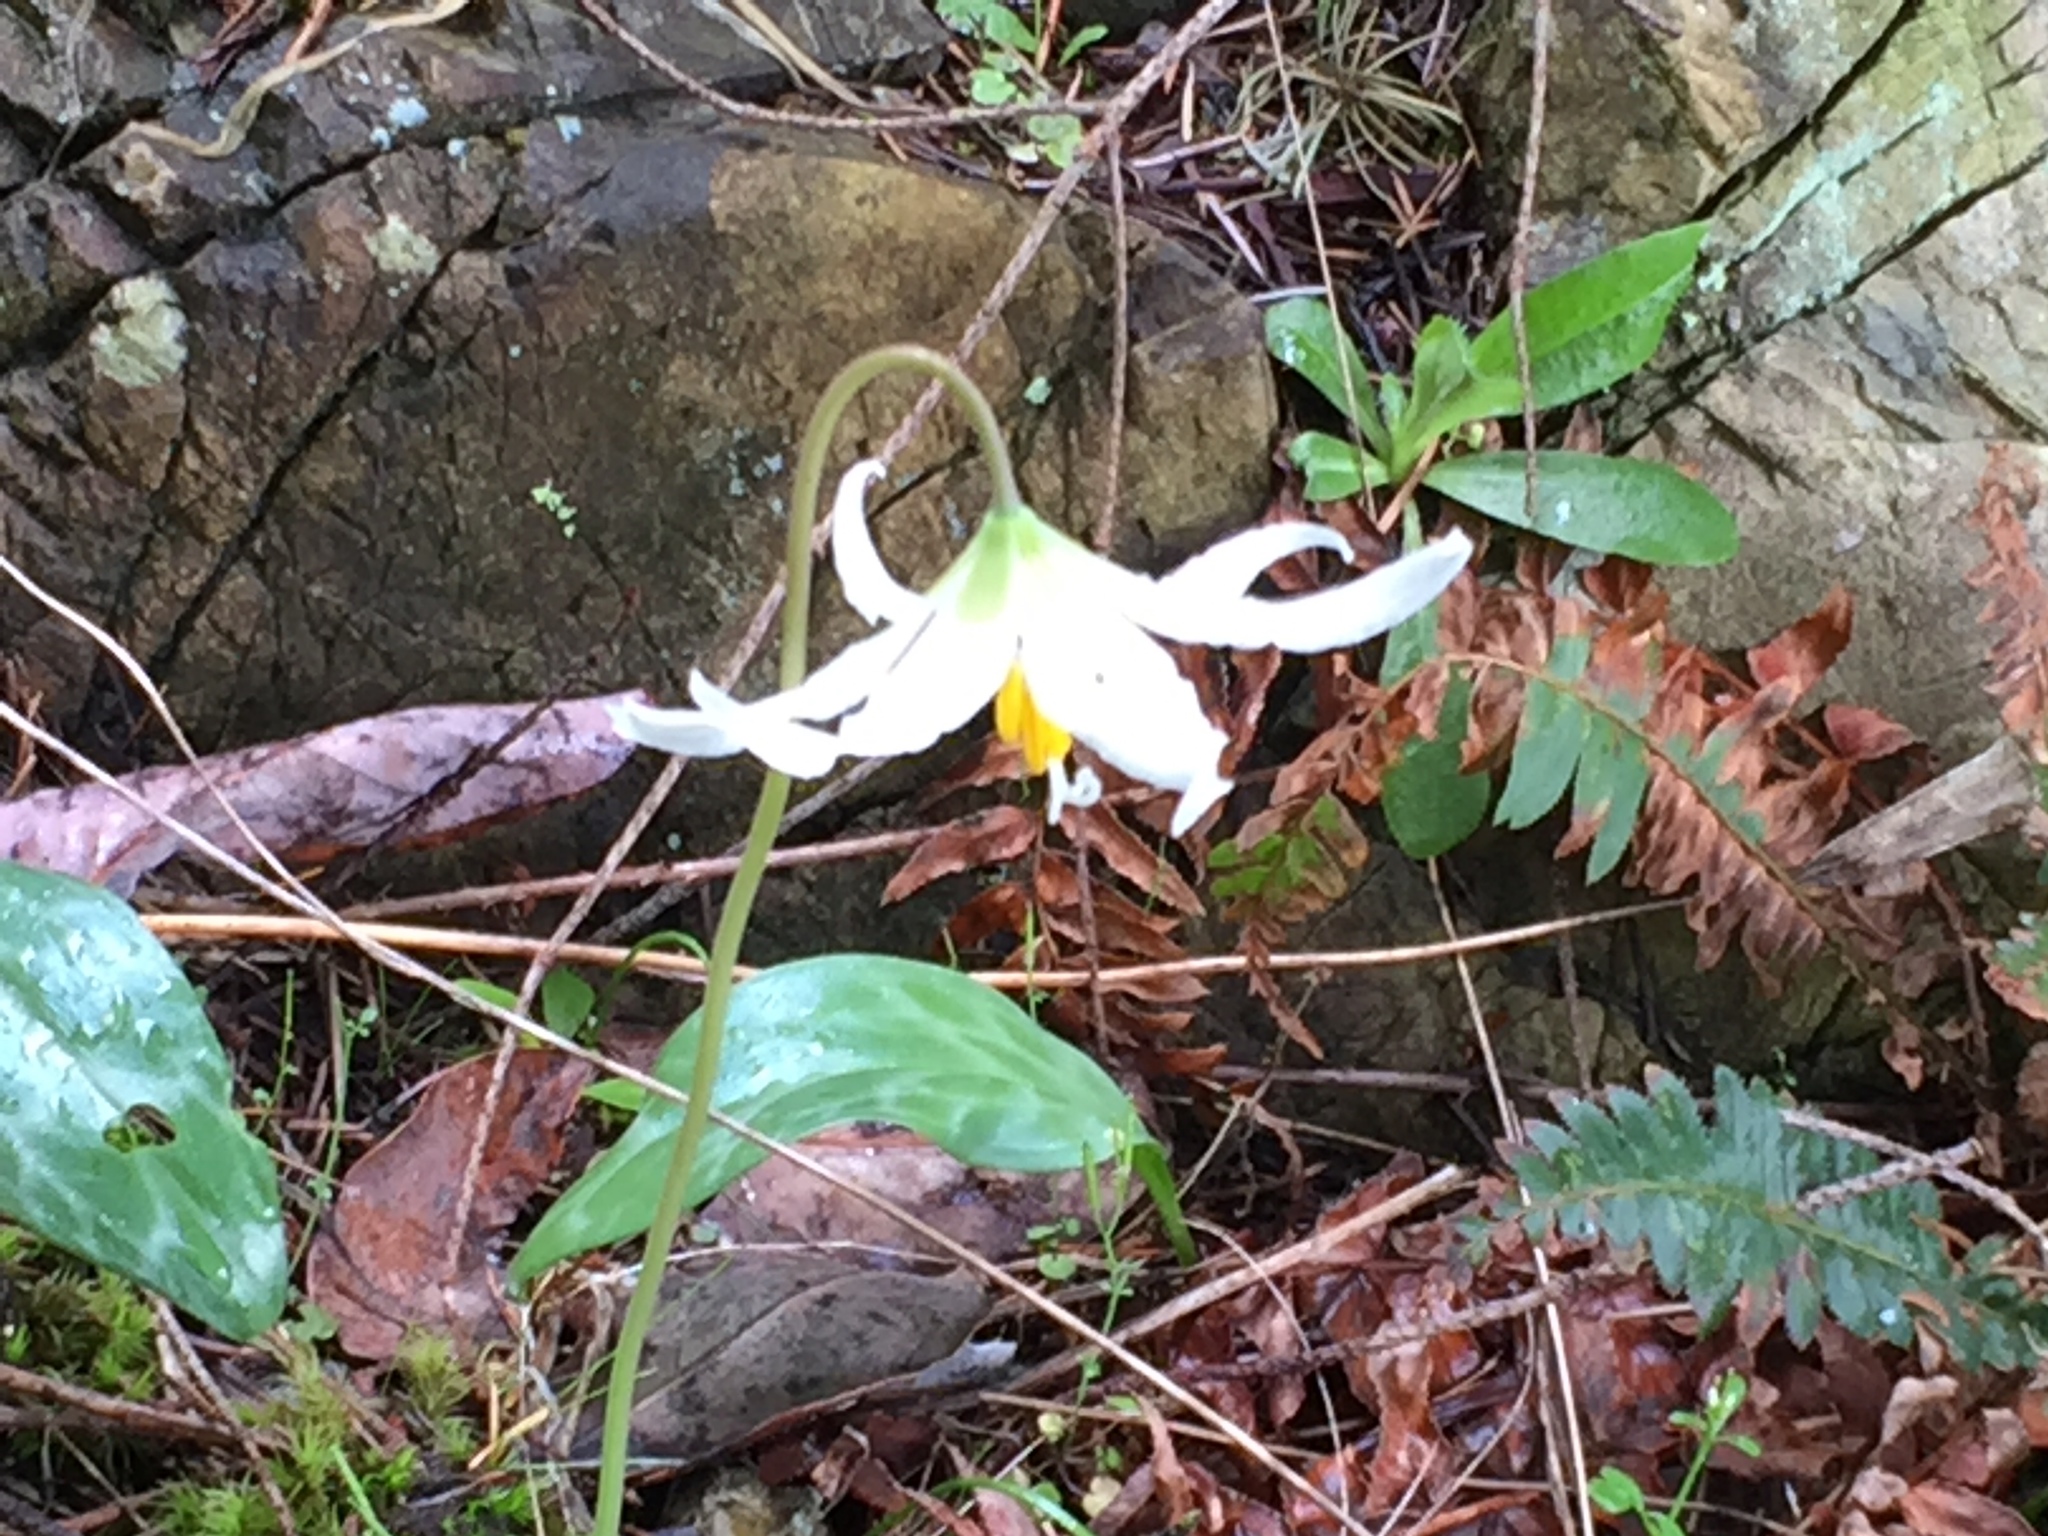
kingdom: Plantae
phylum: Tracheophyta
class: Liliopsida
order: Liliales
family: Liliaceae
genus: Erythronium
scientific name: Erythronium oregonum
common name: Giant adder's-tongue
